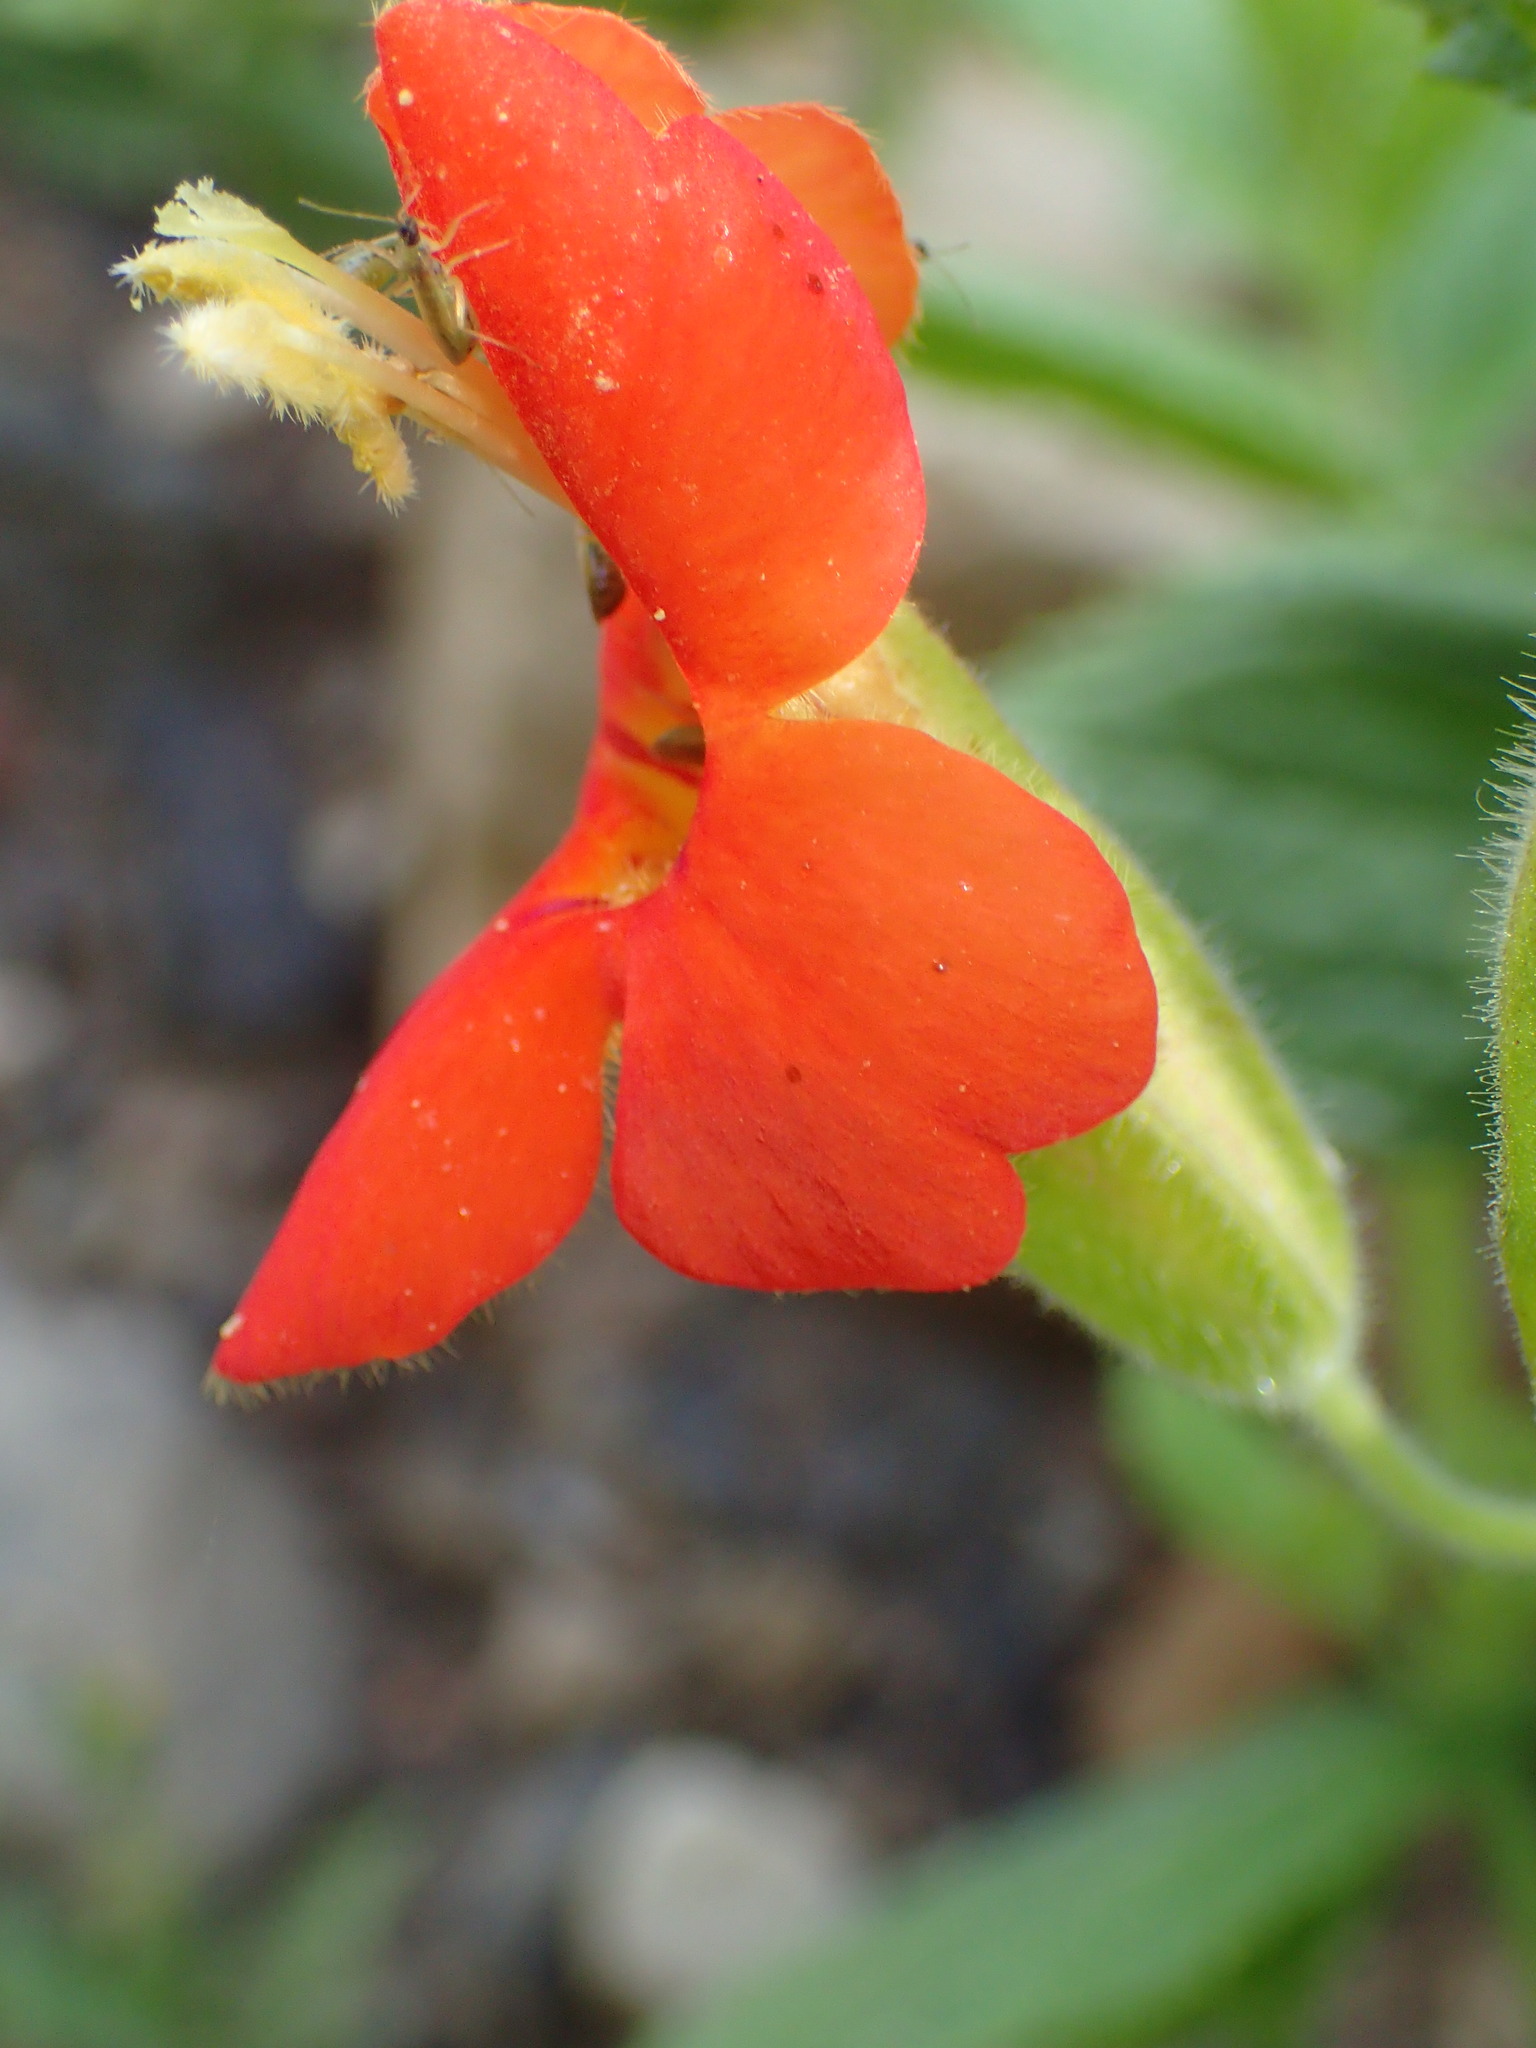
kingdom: Plantae
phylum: Tracheophyta
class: Magnoliopsida
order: Lamiales
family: Phrymaceae
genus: Erythranthe
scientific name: Erythranthe cardinalis
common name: Scarlet monkey-flower
